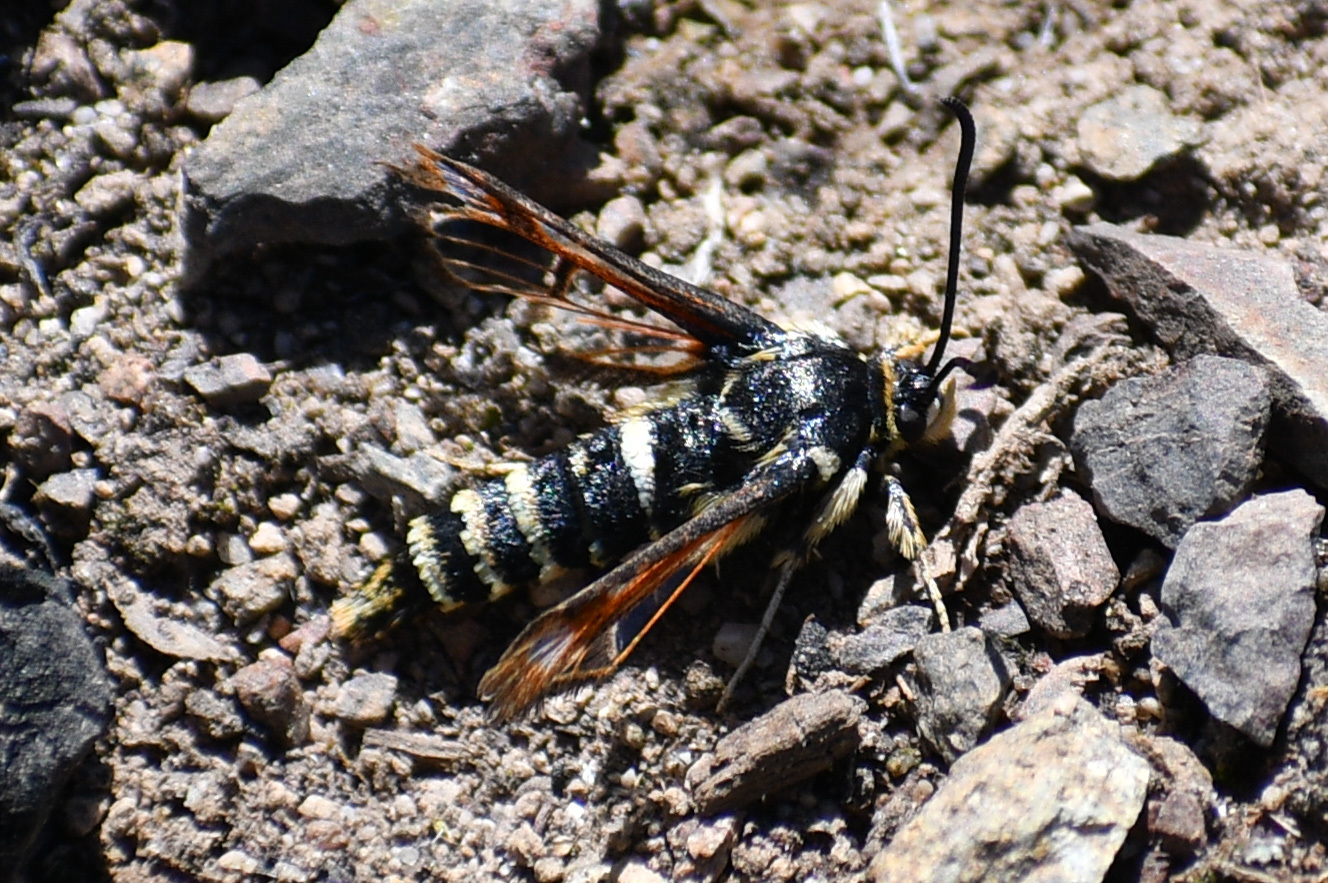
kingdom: Animalia
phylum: Arthropoda
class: Insecta
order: Lepidoptera
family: Sesiidae
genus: Albuna
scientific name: Albuna pyramidalis
